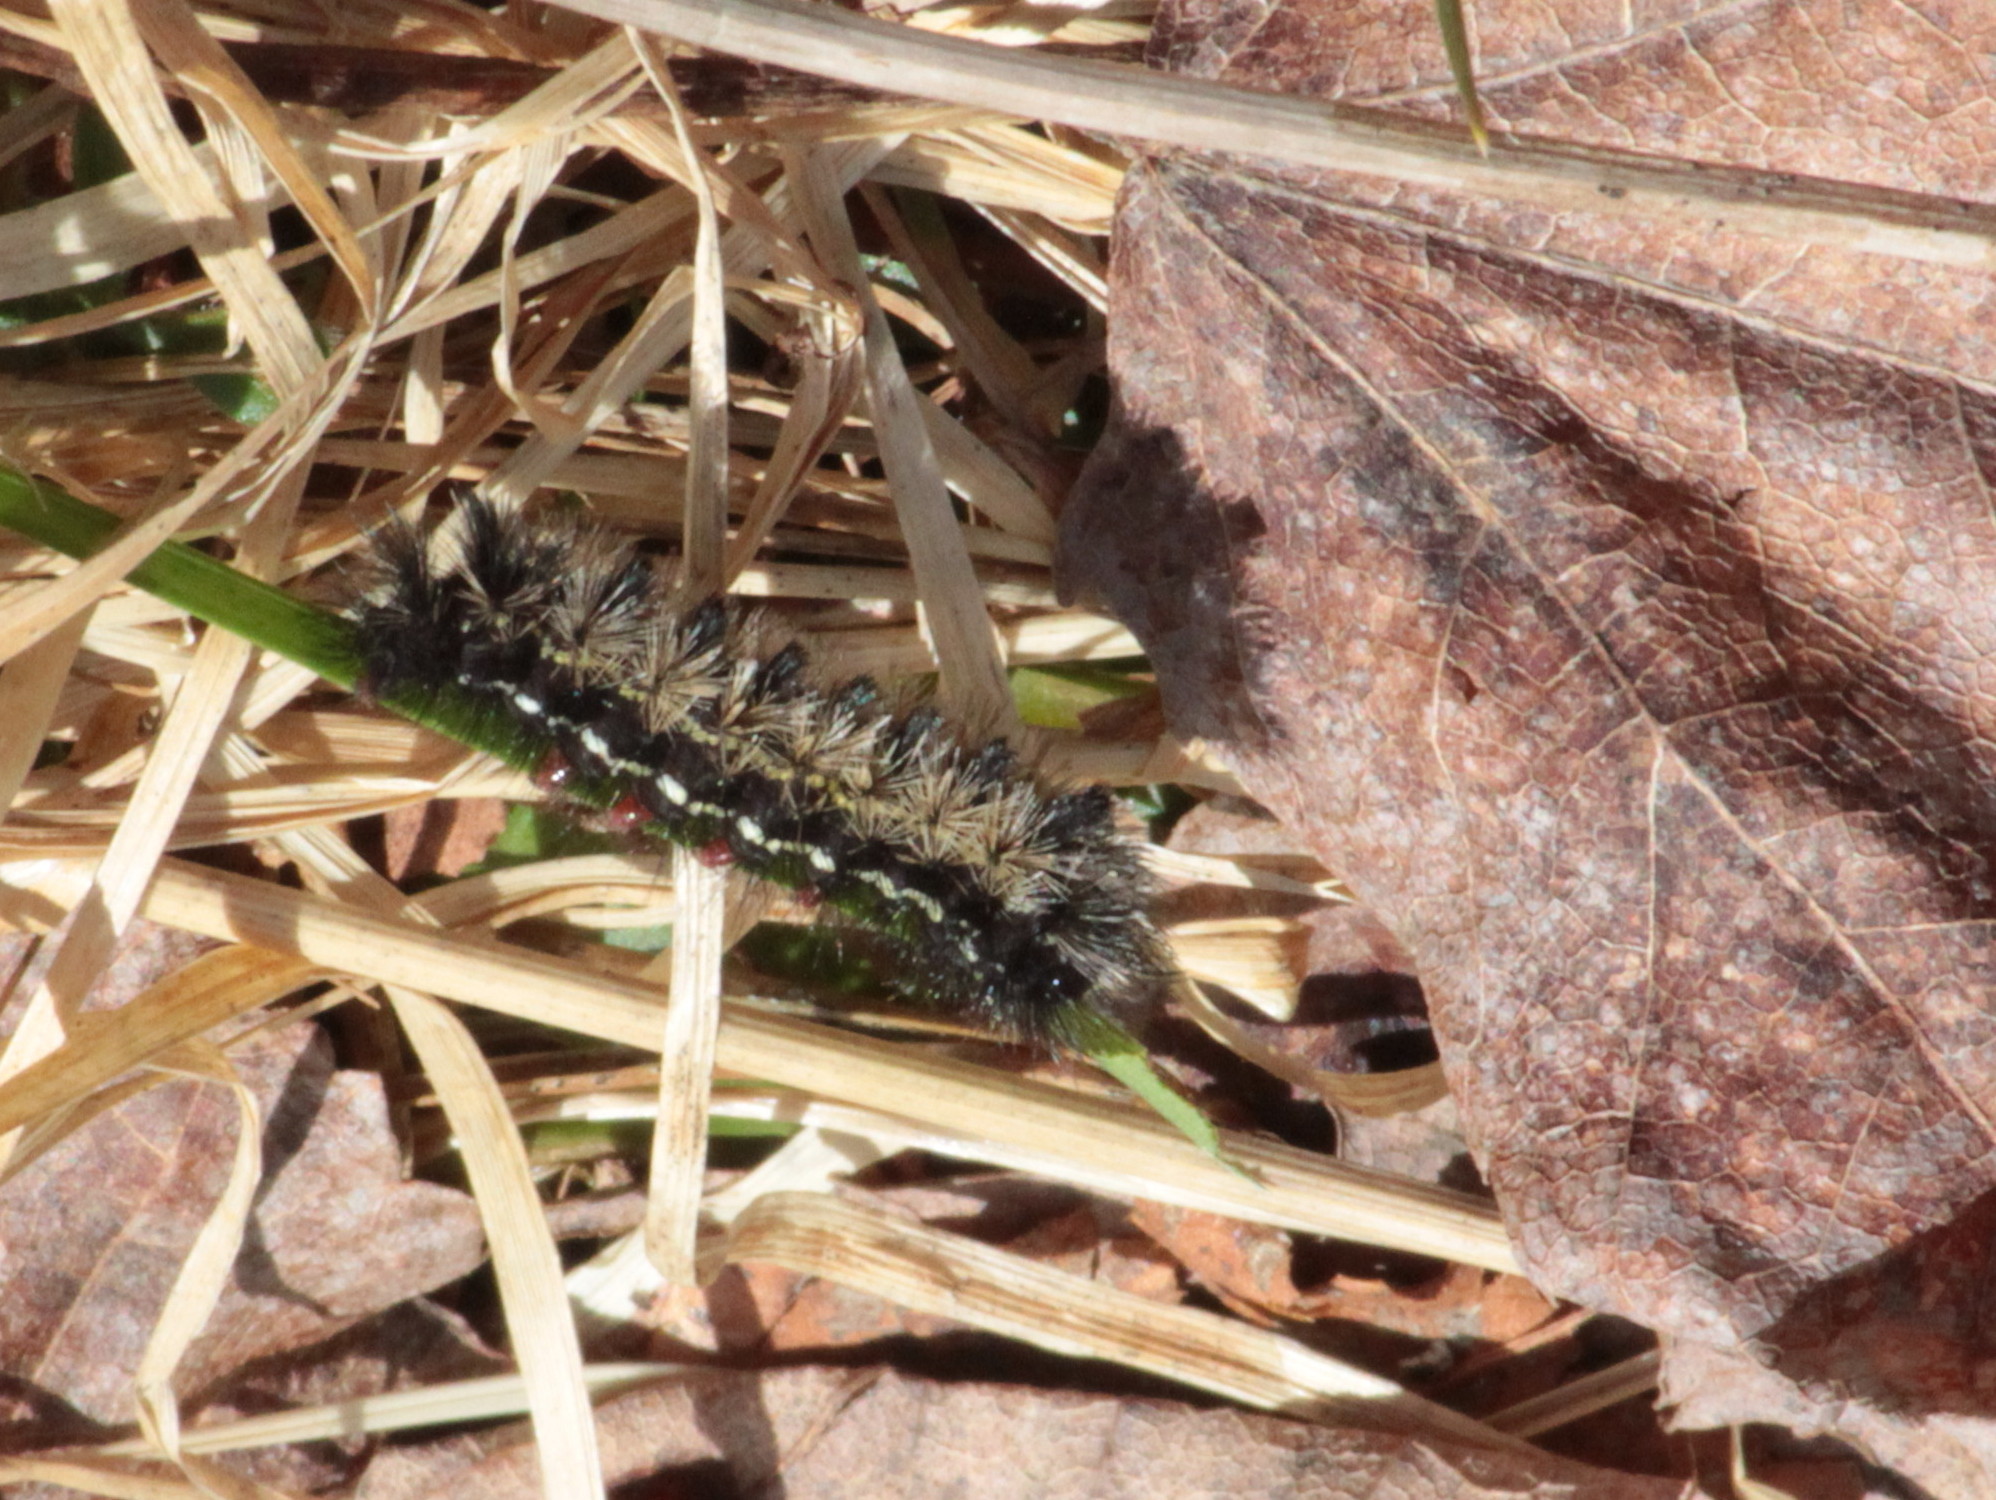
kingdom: Animalia
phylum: Arthropoda
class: Insecta
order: Lepidoptera
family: Erebidae
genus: Ctenucha
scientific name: Ctenucha virginica
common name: Virginia ctenucha moth
